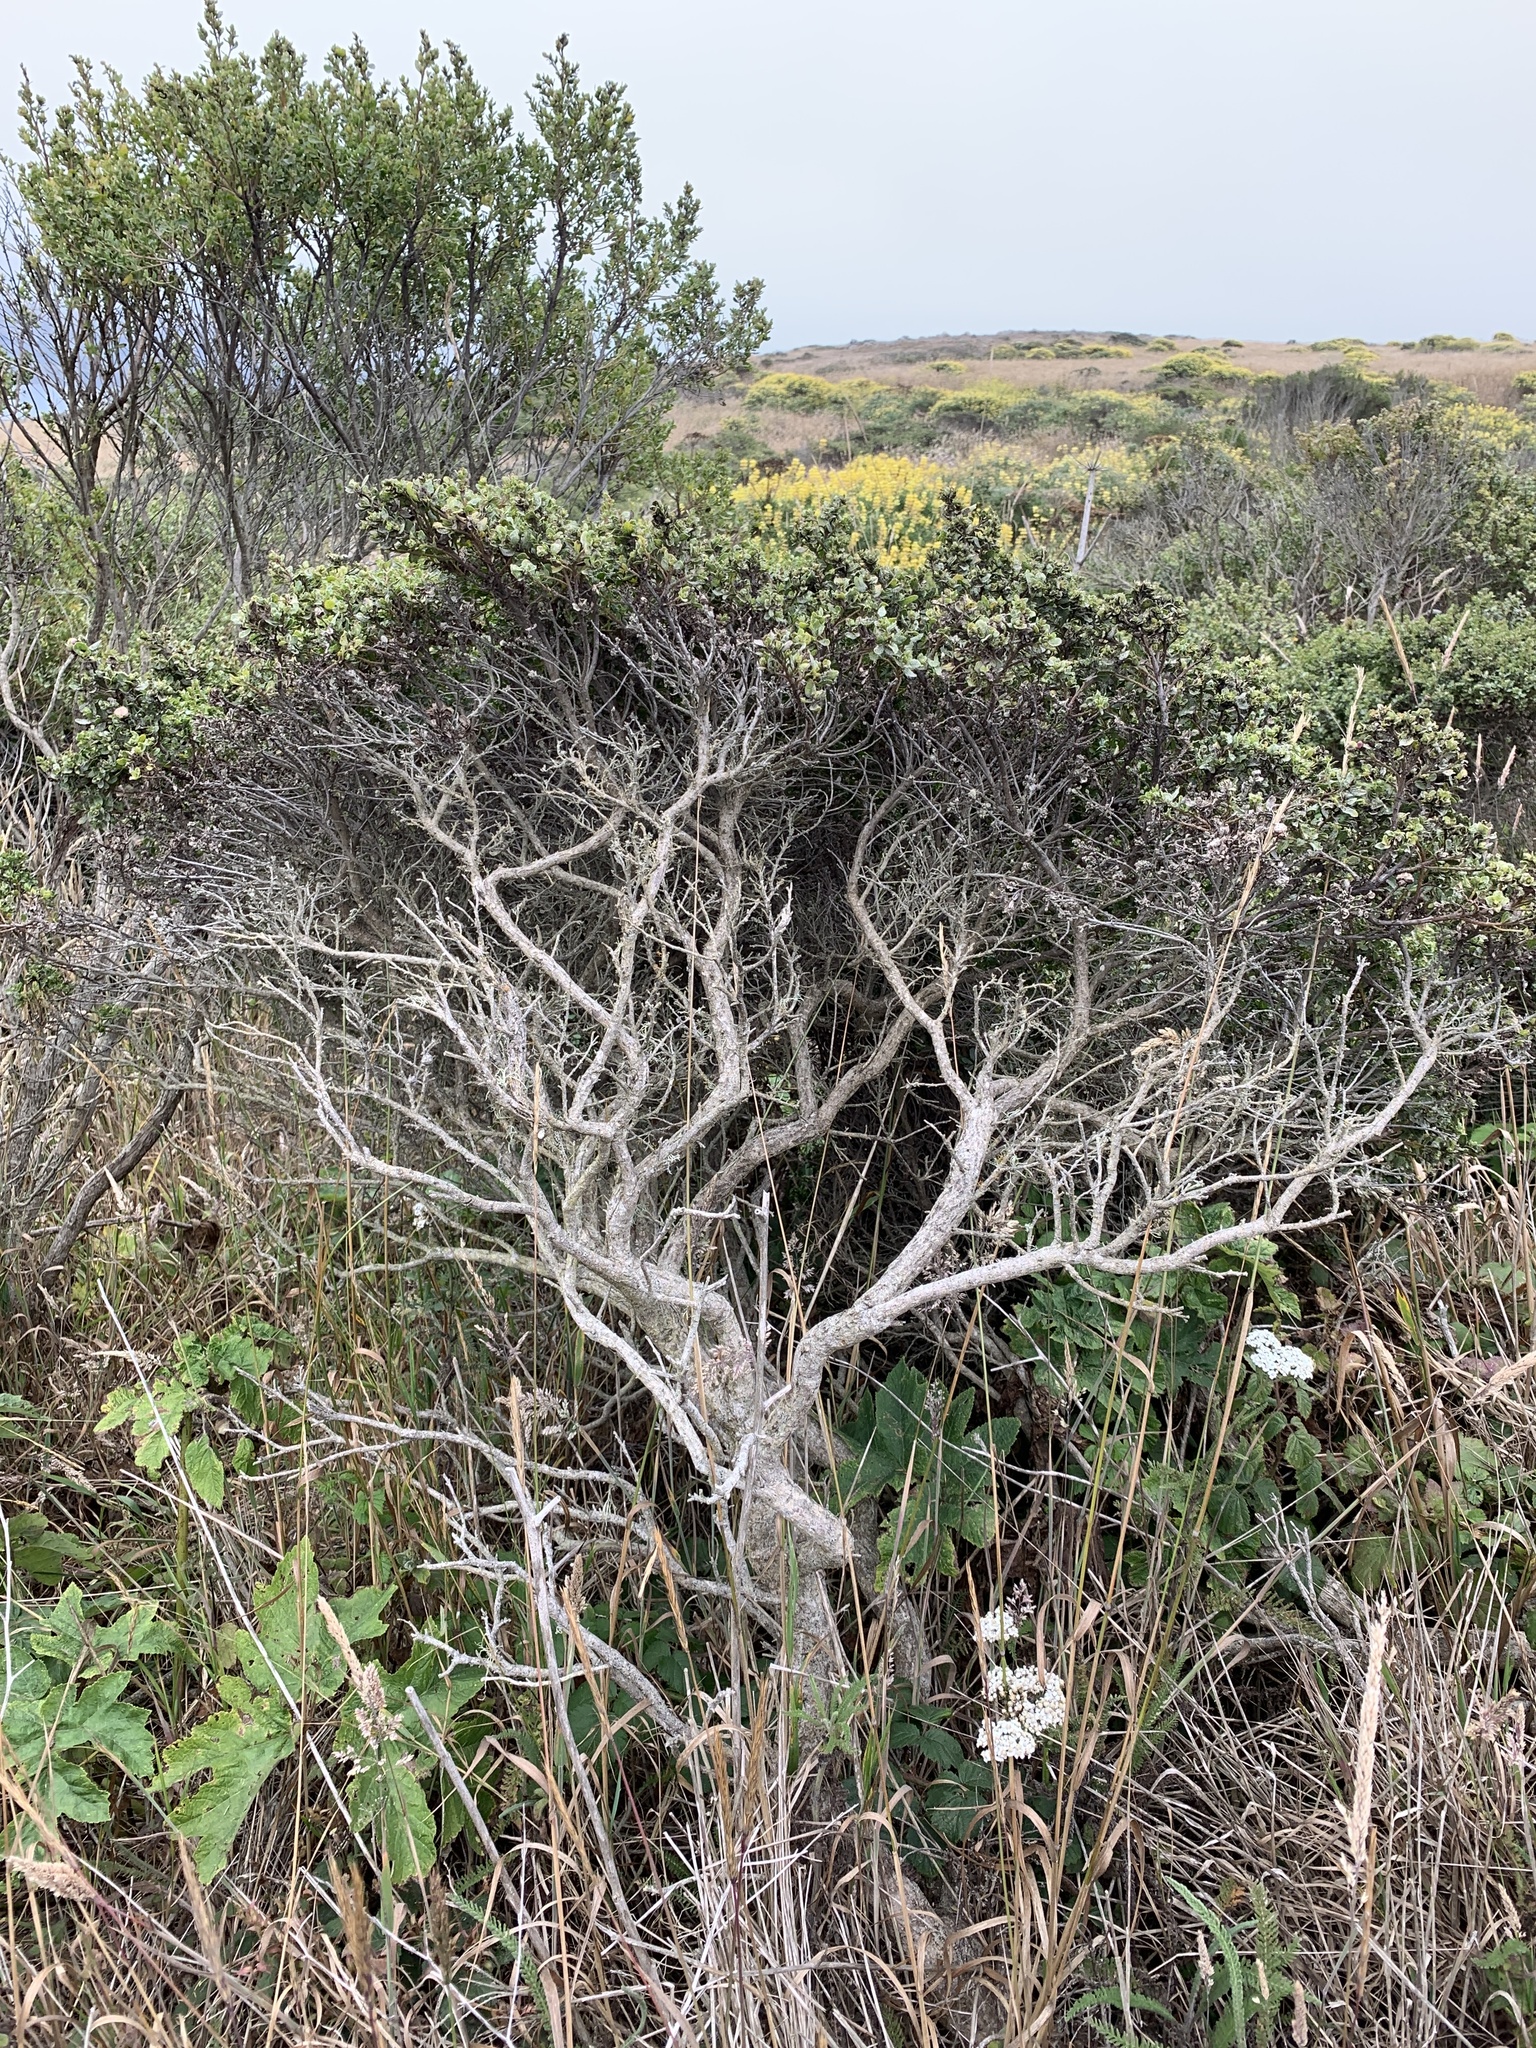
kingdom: Plantae
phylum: Tracheophyta
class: Magnoliopsida
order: Asterales
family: Asteraceae
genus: Baccharis
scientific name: Baccharis pilularis
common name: Coyotebrush
